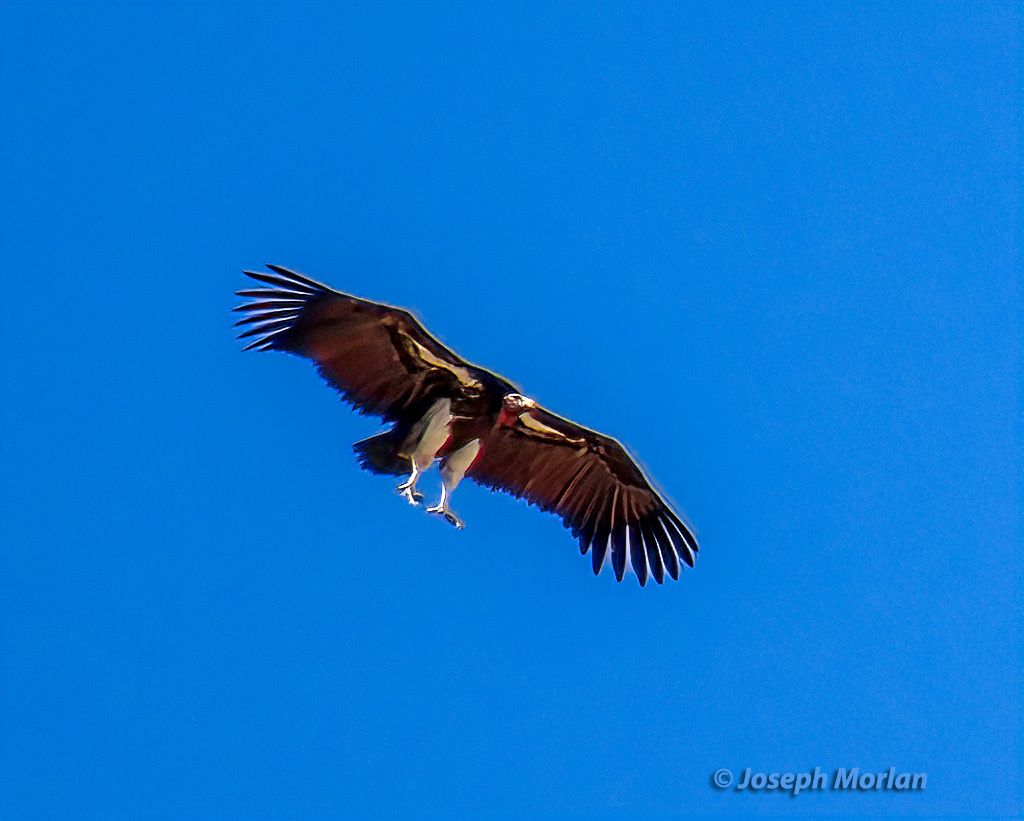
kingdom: Animalia
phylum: Chordata
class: Aves
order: Accipitriformes
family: Accipitridae
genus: Torgos
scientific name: Torgos tracheliotos
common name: Lappet-faced vulture
